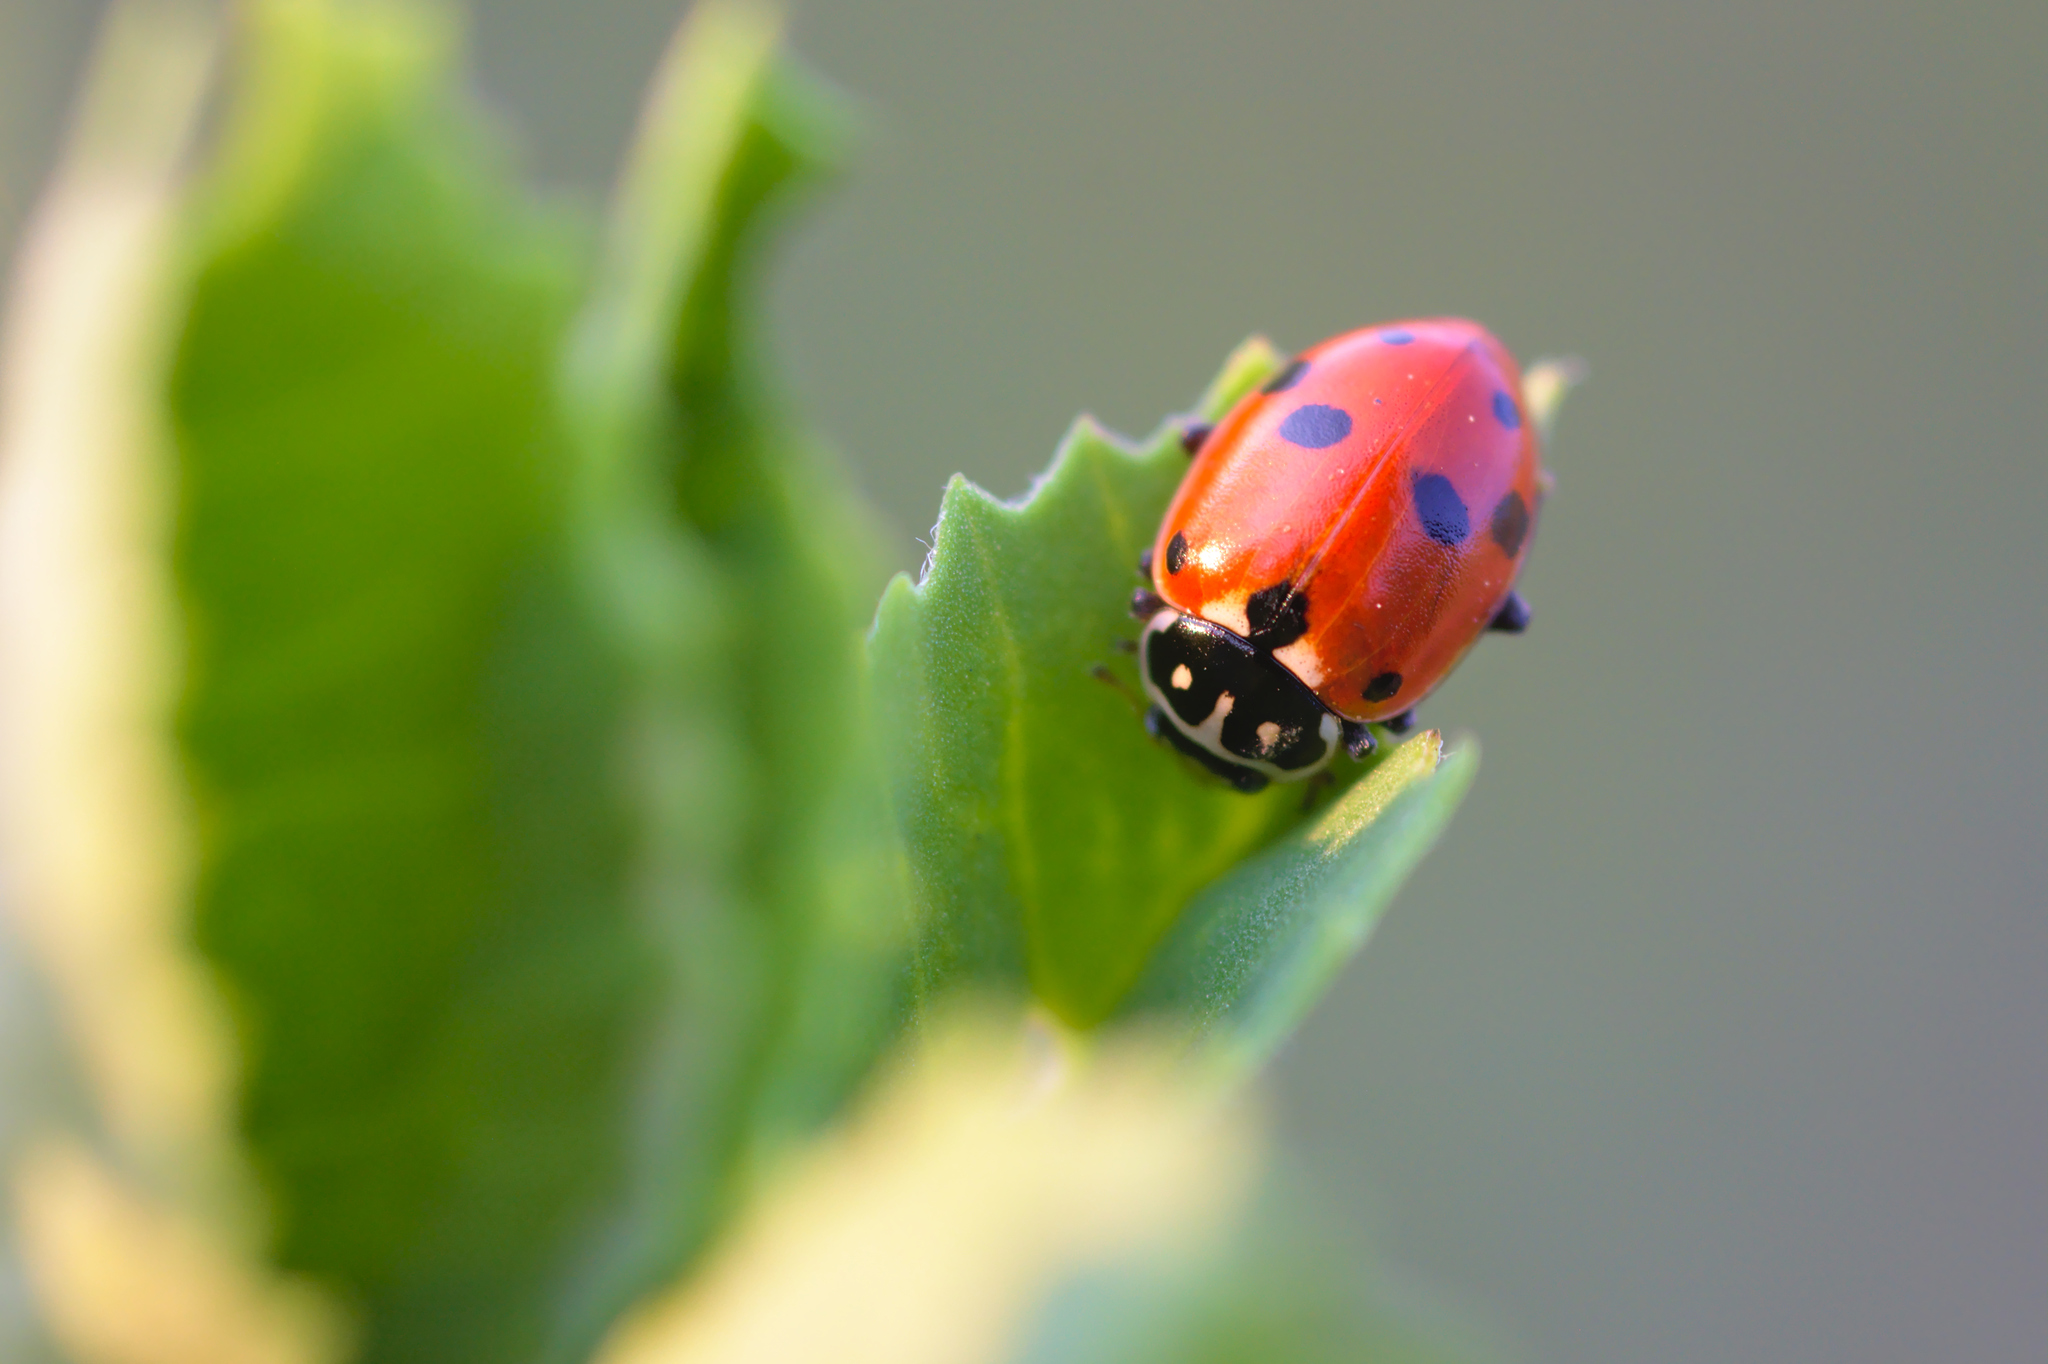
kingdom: Animalia
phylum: Arthropoda
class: Insecta
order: Coleoptera
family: Coccinellidae
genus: Hippodamia
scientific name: Hippodamia variegata
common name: Ladybird beetle
